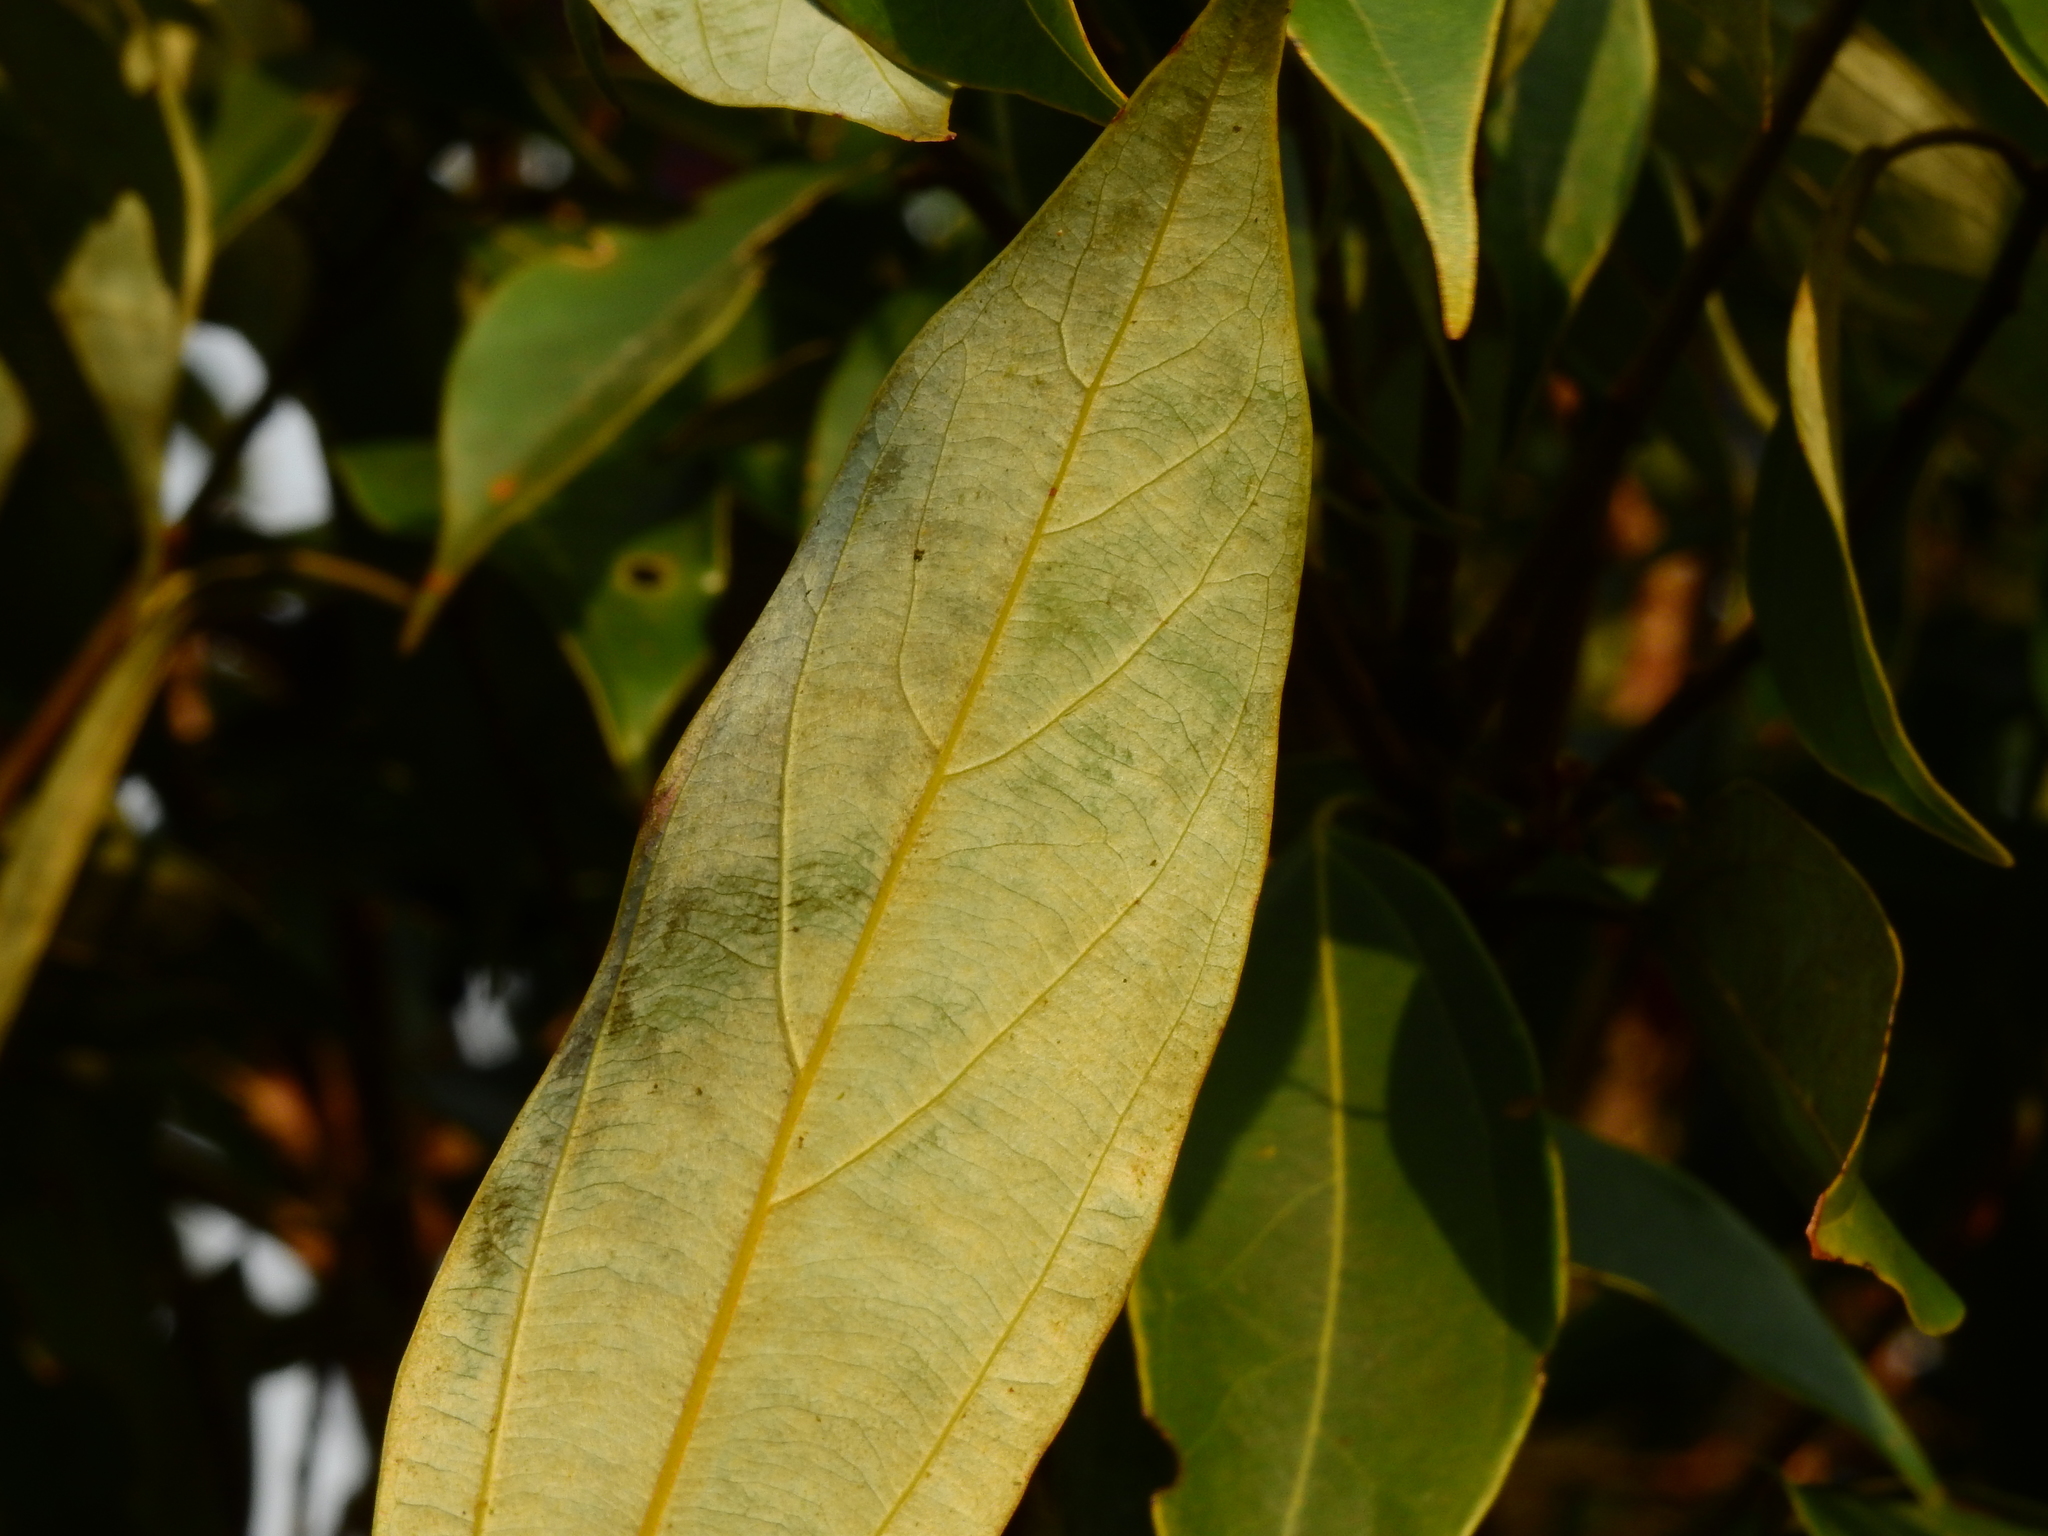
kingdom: Plantae
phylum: Tracheophyta
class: Magnoliopsida
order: Laurales
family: Lauraceae
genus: Neolitsea
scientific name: Neolitsea sericea
